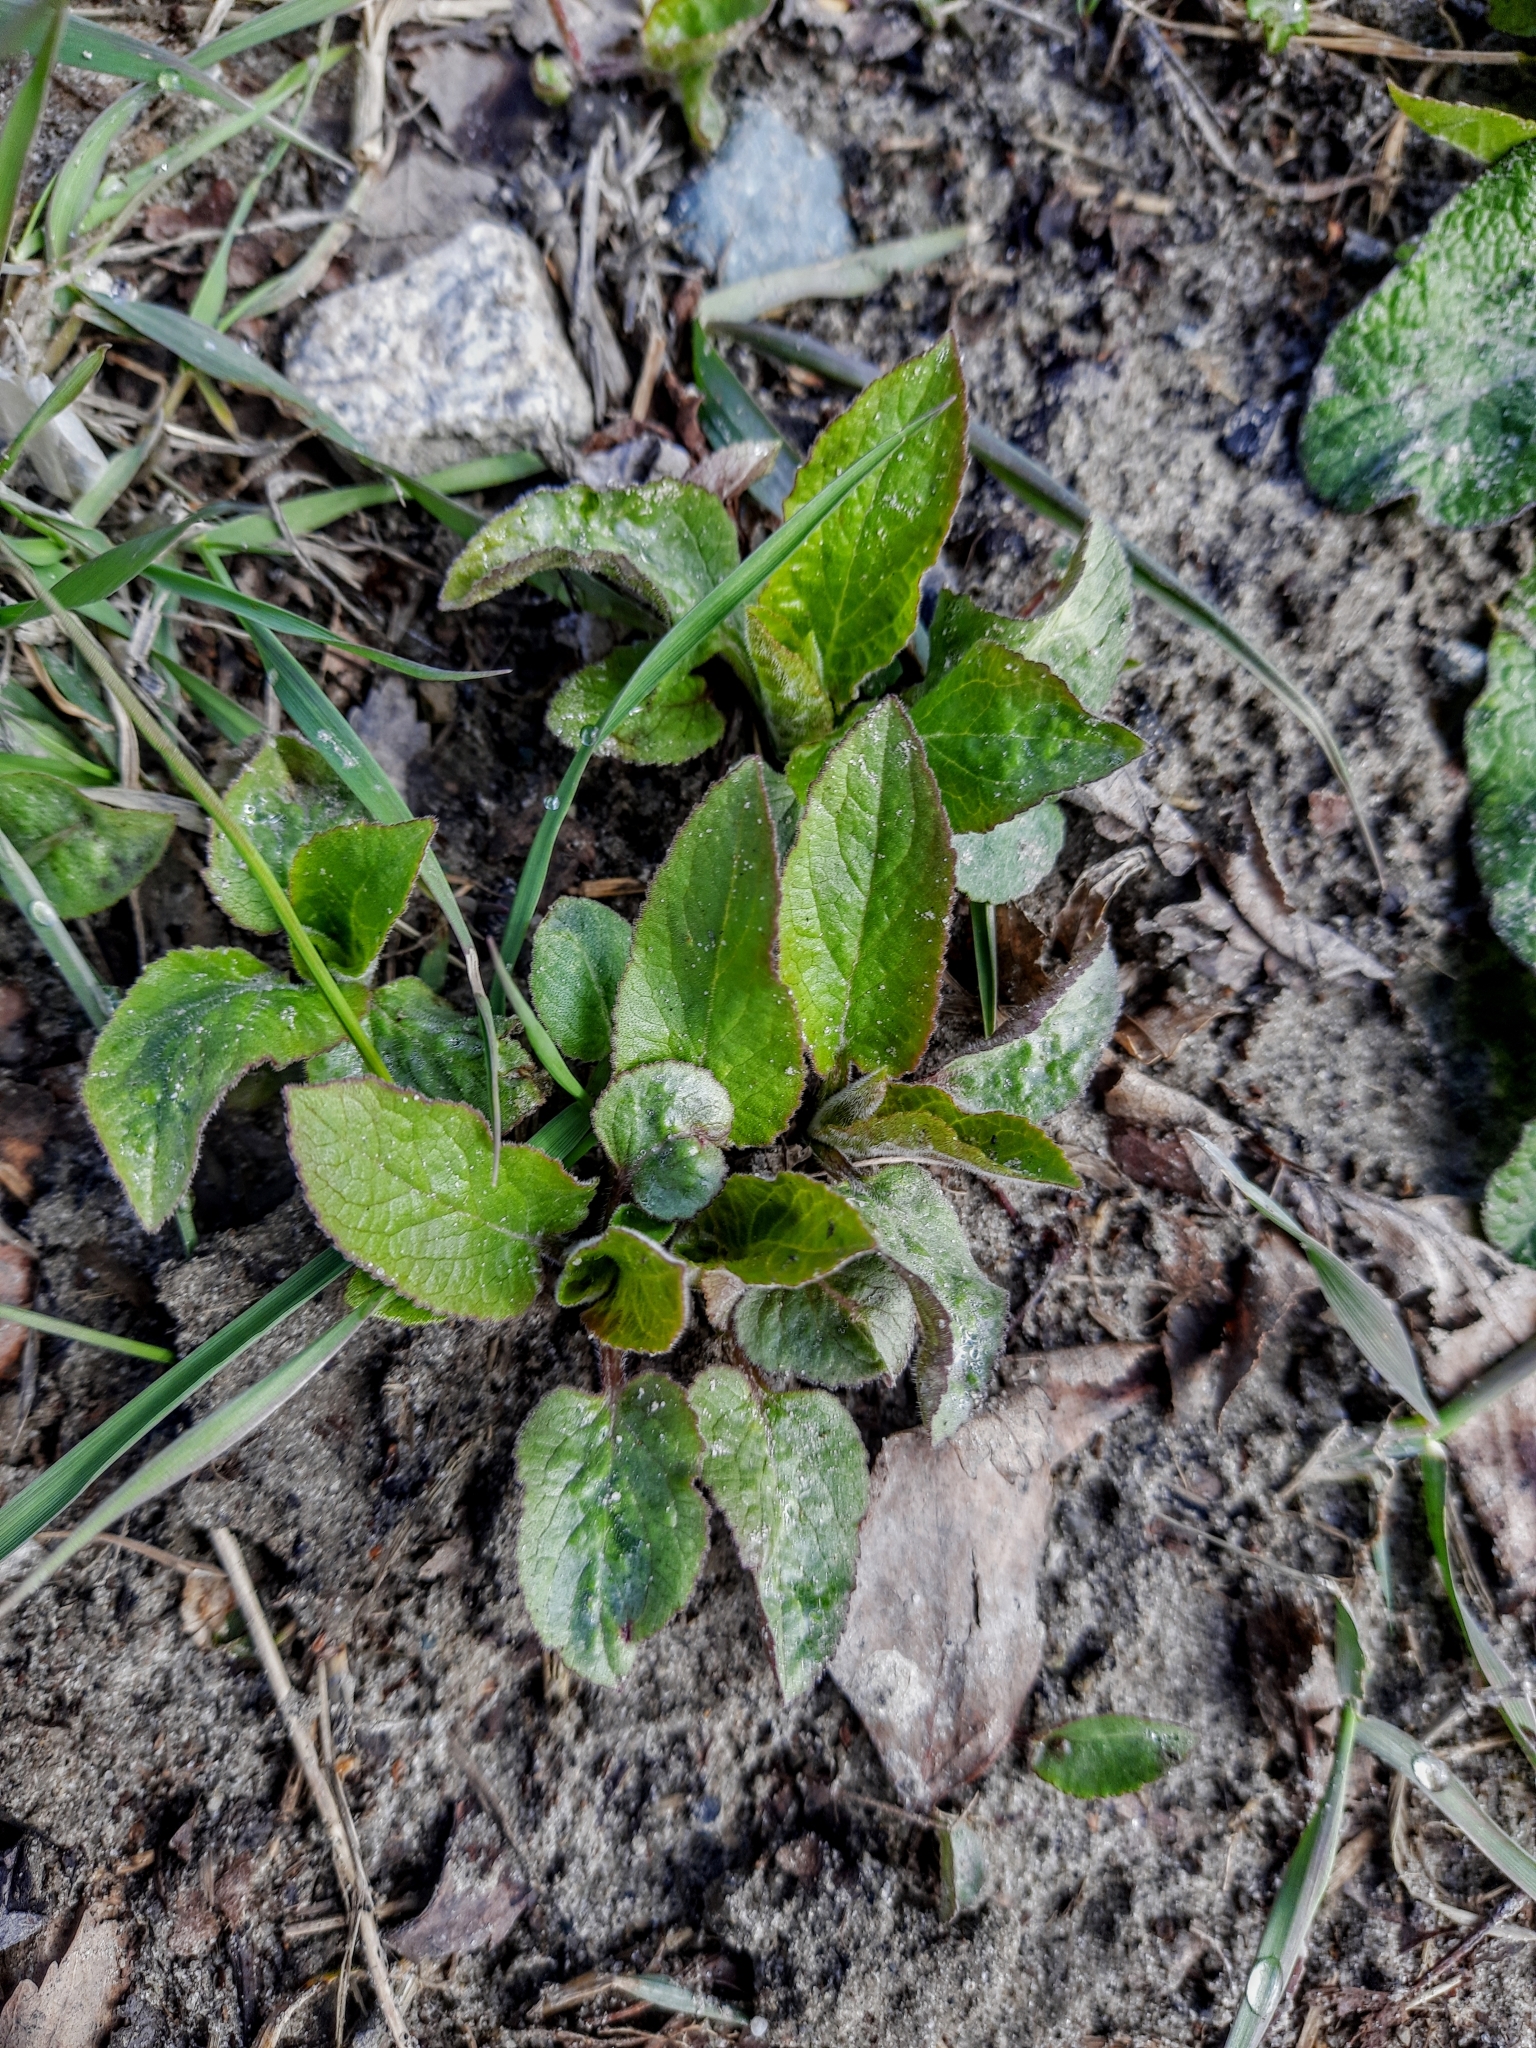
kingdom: Plantae
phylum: Tracheophyta
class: Magnoliopsida
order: Asterales
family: Campanulaceae
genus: Campanula
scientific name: Campanula rapunculoides
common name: Creeping bellflower
